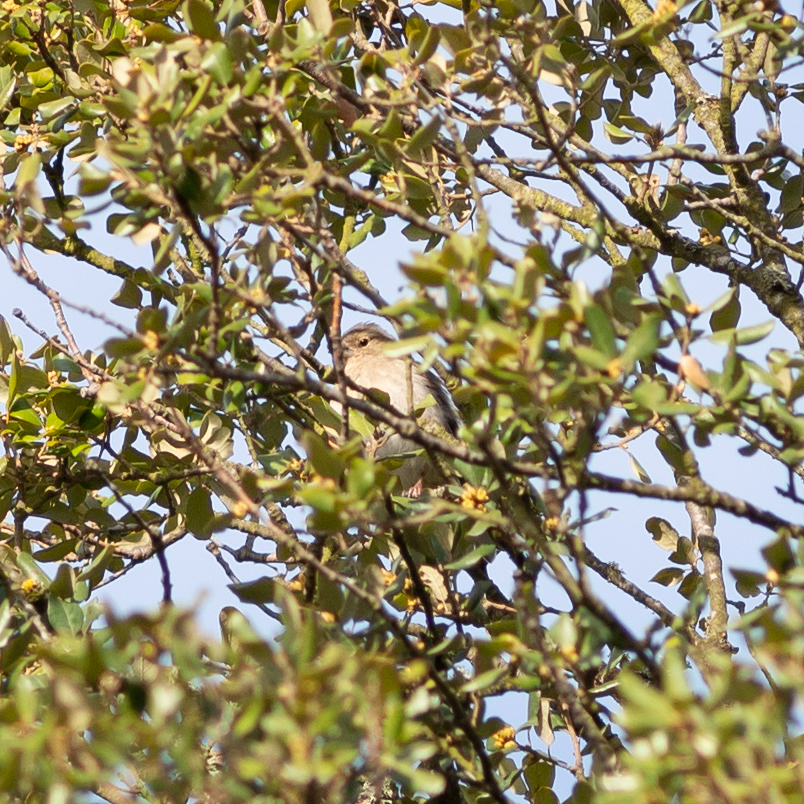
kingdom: Animalia
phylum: Chordata
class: Aves
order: Passeriformes
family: Fringillidae
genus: Fringilla
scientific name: Fringilla coelebs
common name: Common chaffinch
